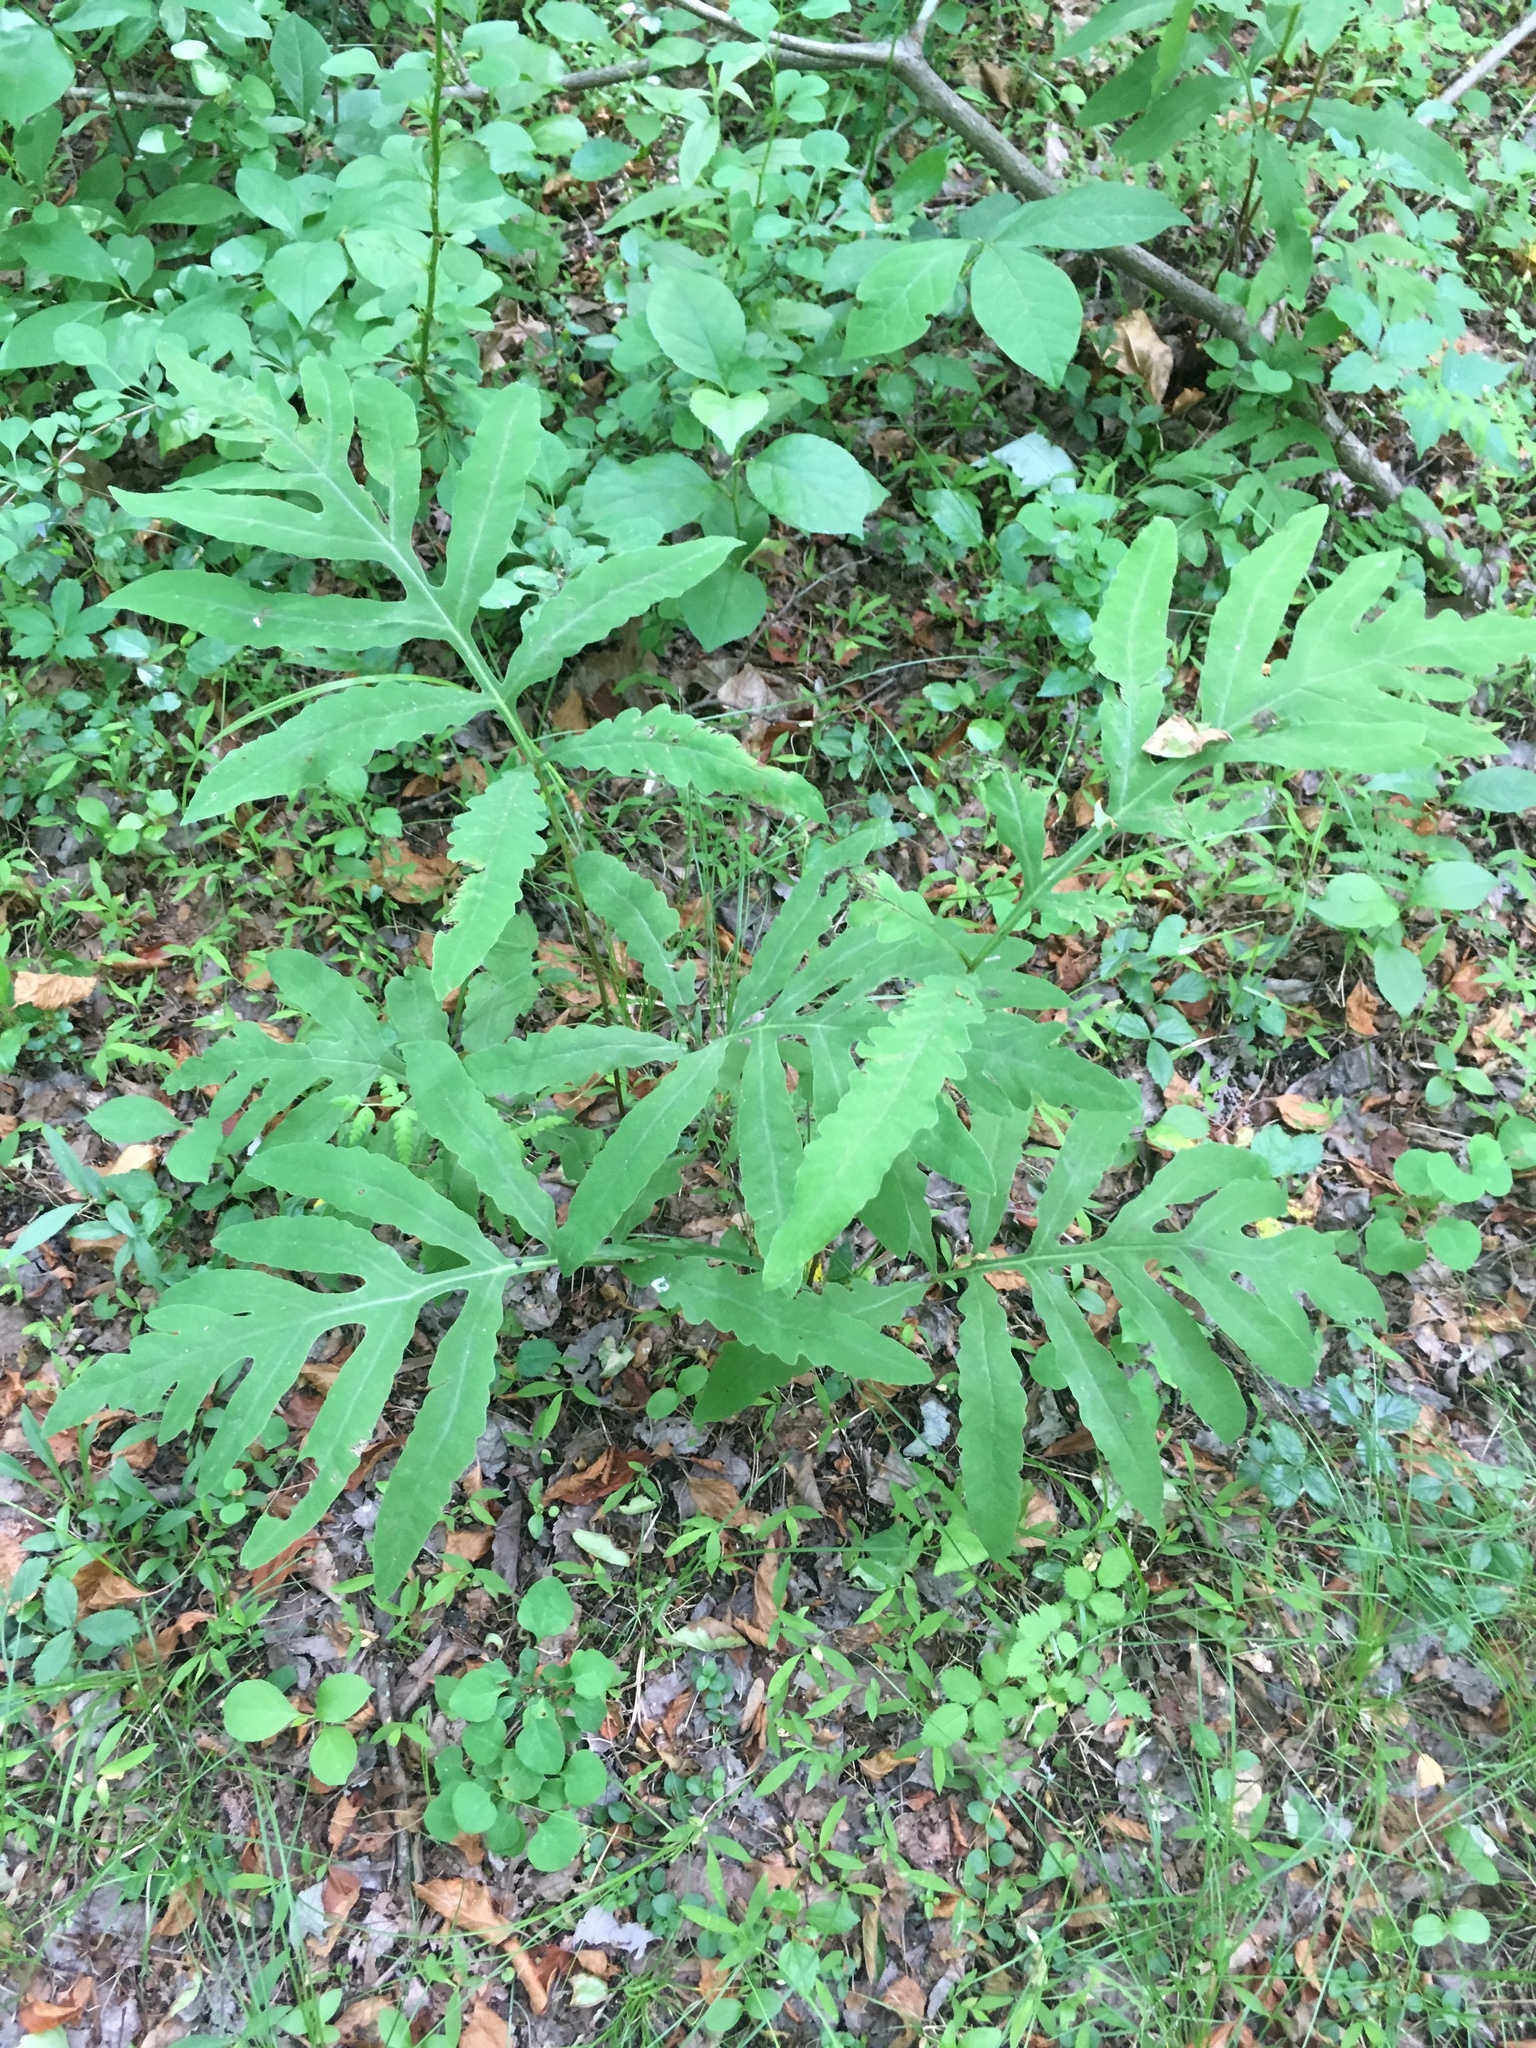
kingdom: Plantae
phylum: Tracheophyta
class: Polypodiopsida
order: Polypodiales
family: Onocleaceae
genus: Onoclea
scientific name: Onoclea sensibilis
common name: Sensitive fern
